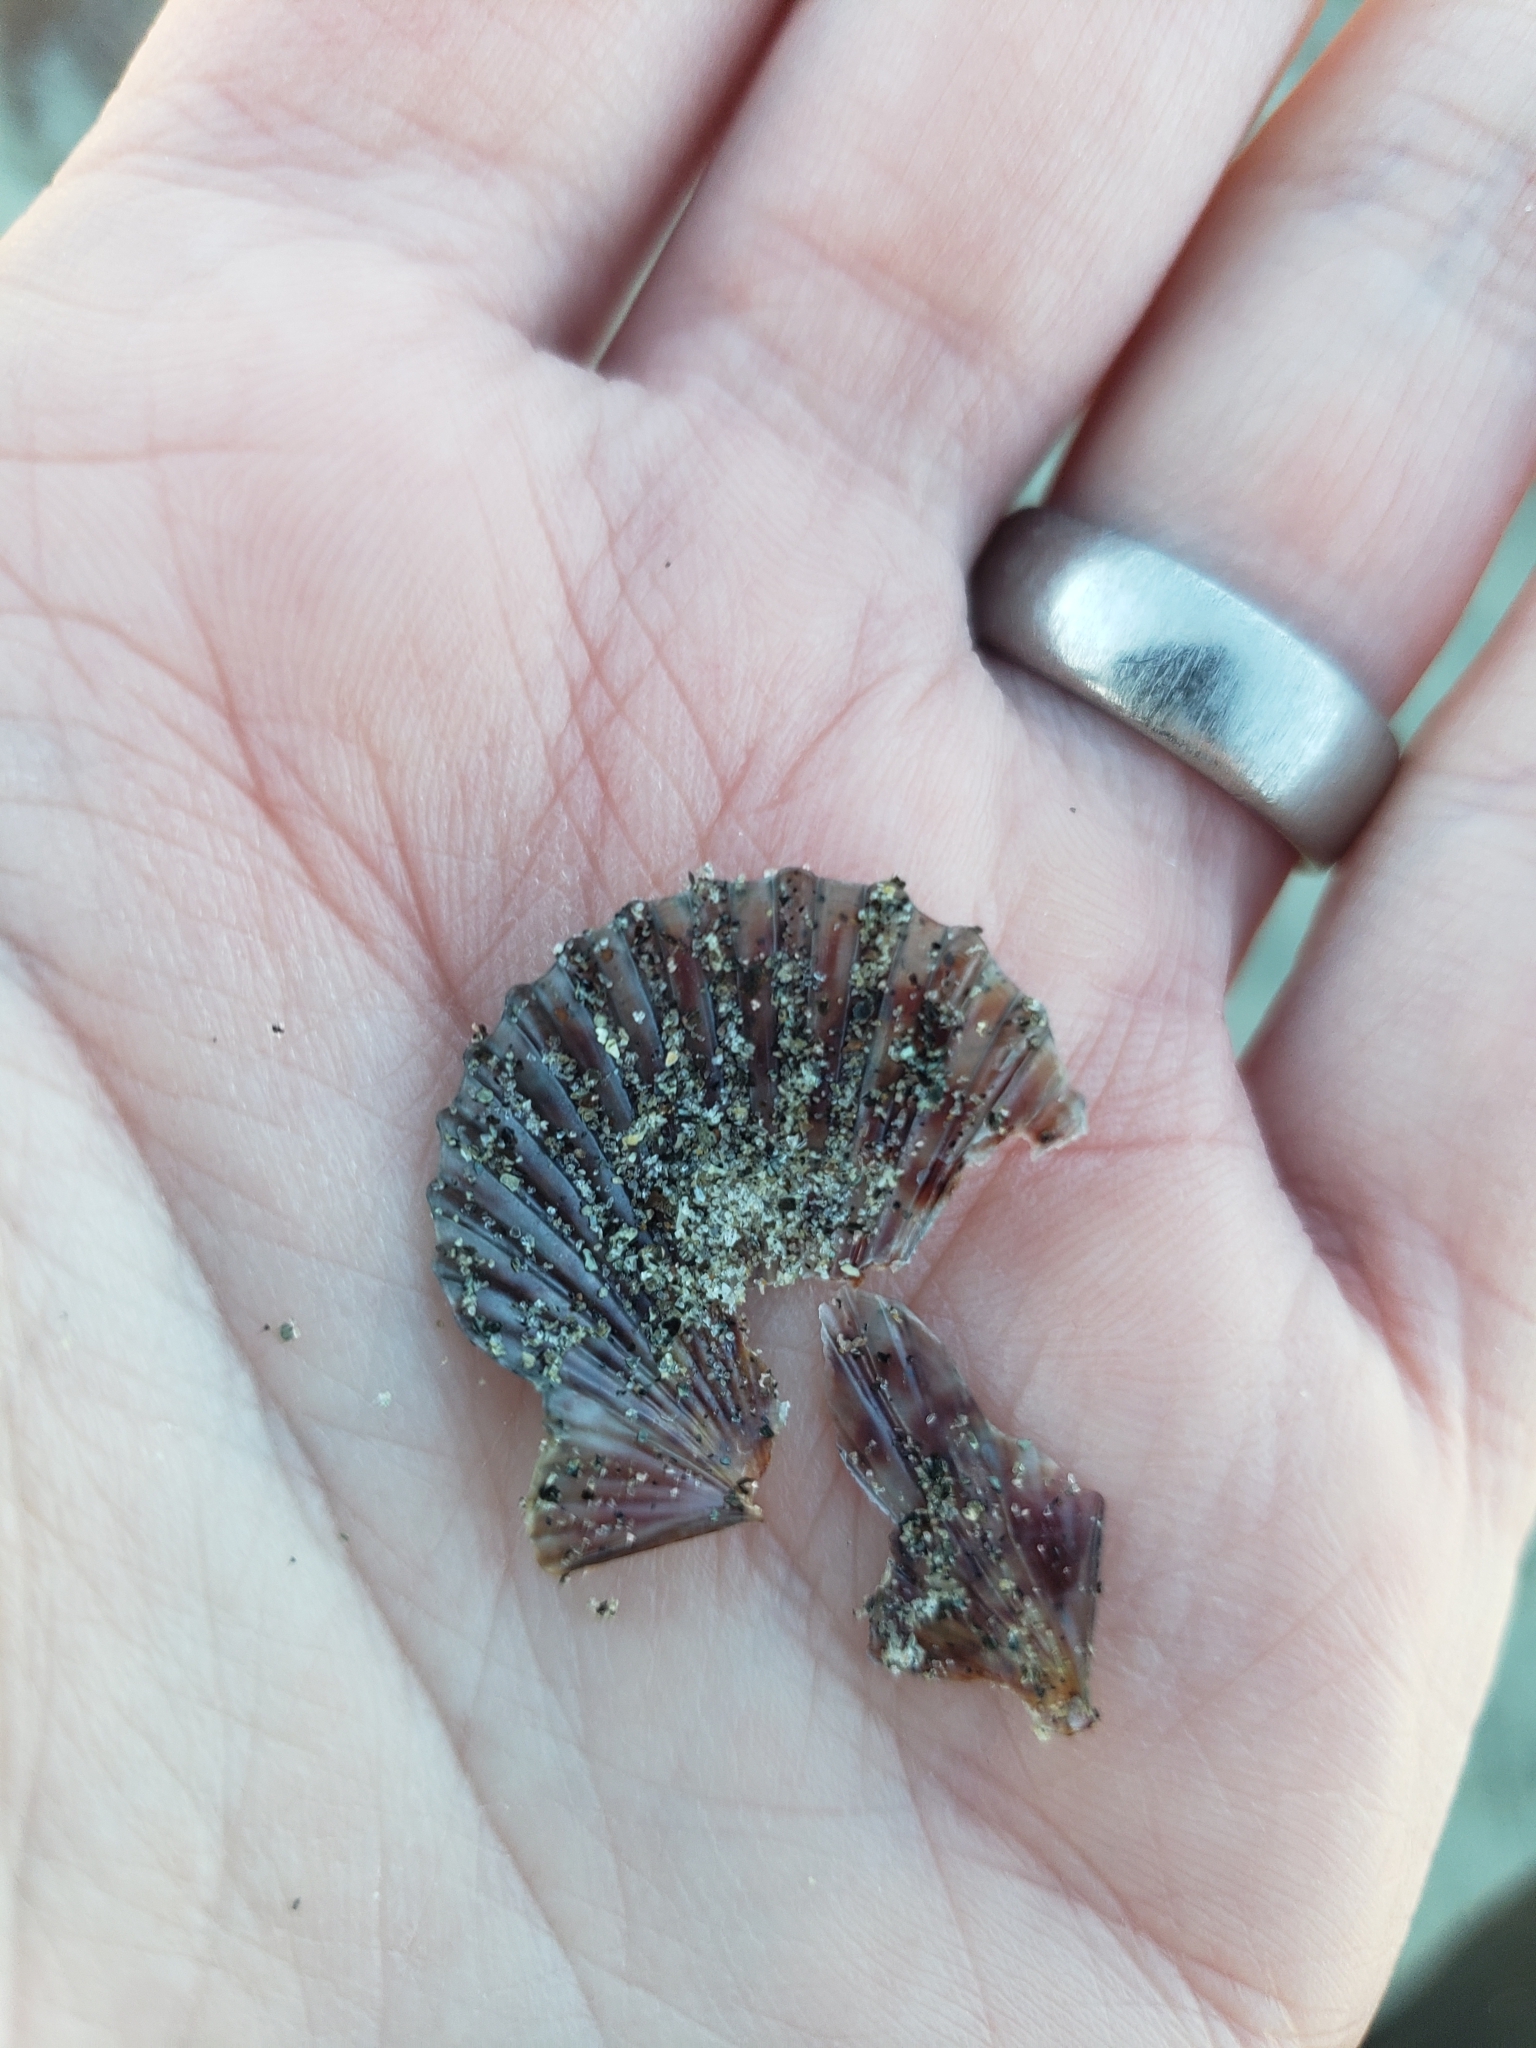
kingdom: Animalia
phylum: Mollusca
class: Bivalvia
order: Pectinida
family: Pectinidae
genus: Leptopecten
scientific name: Leptopecten latiauratus
